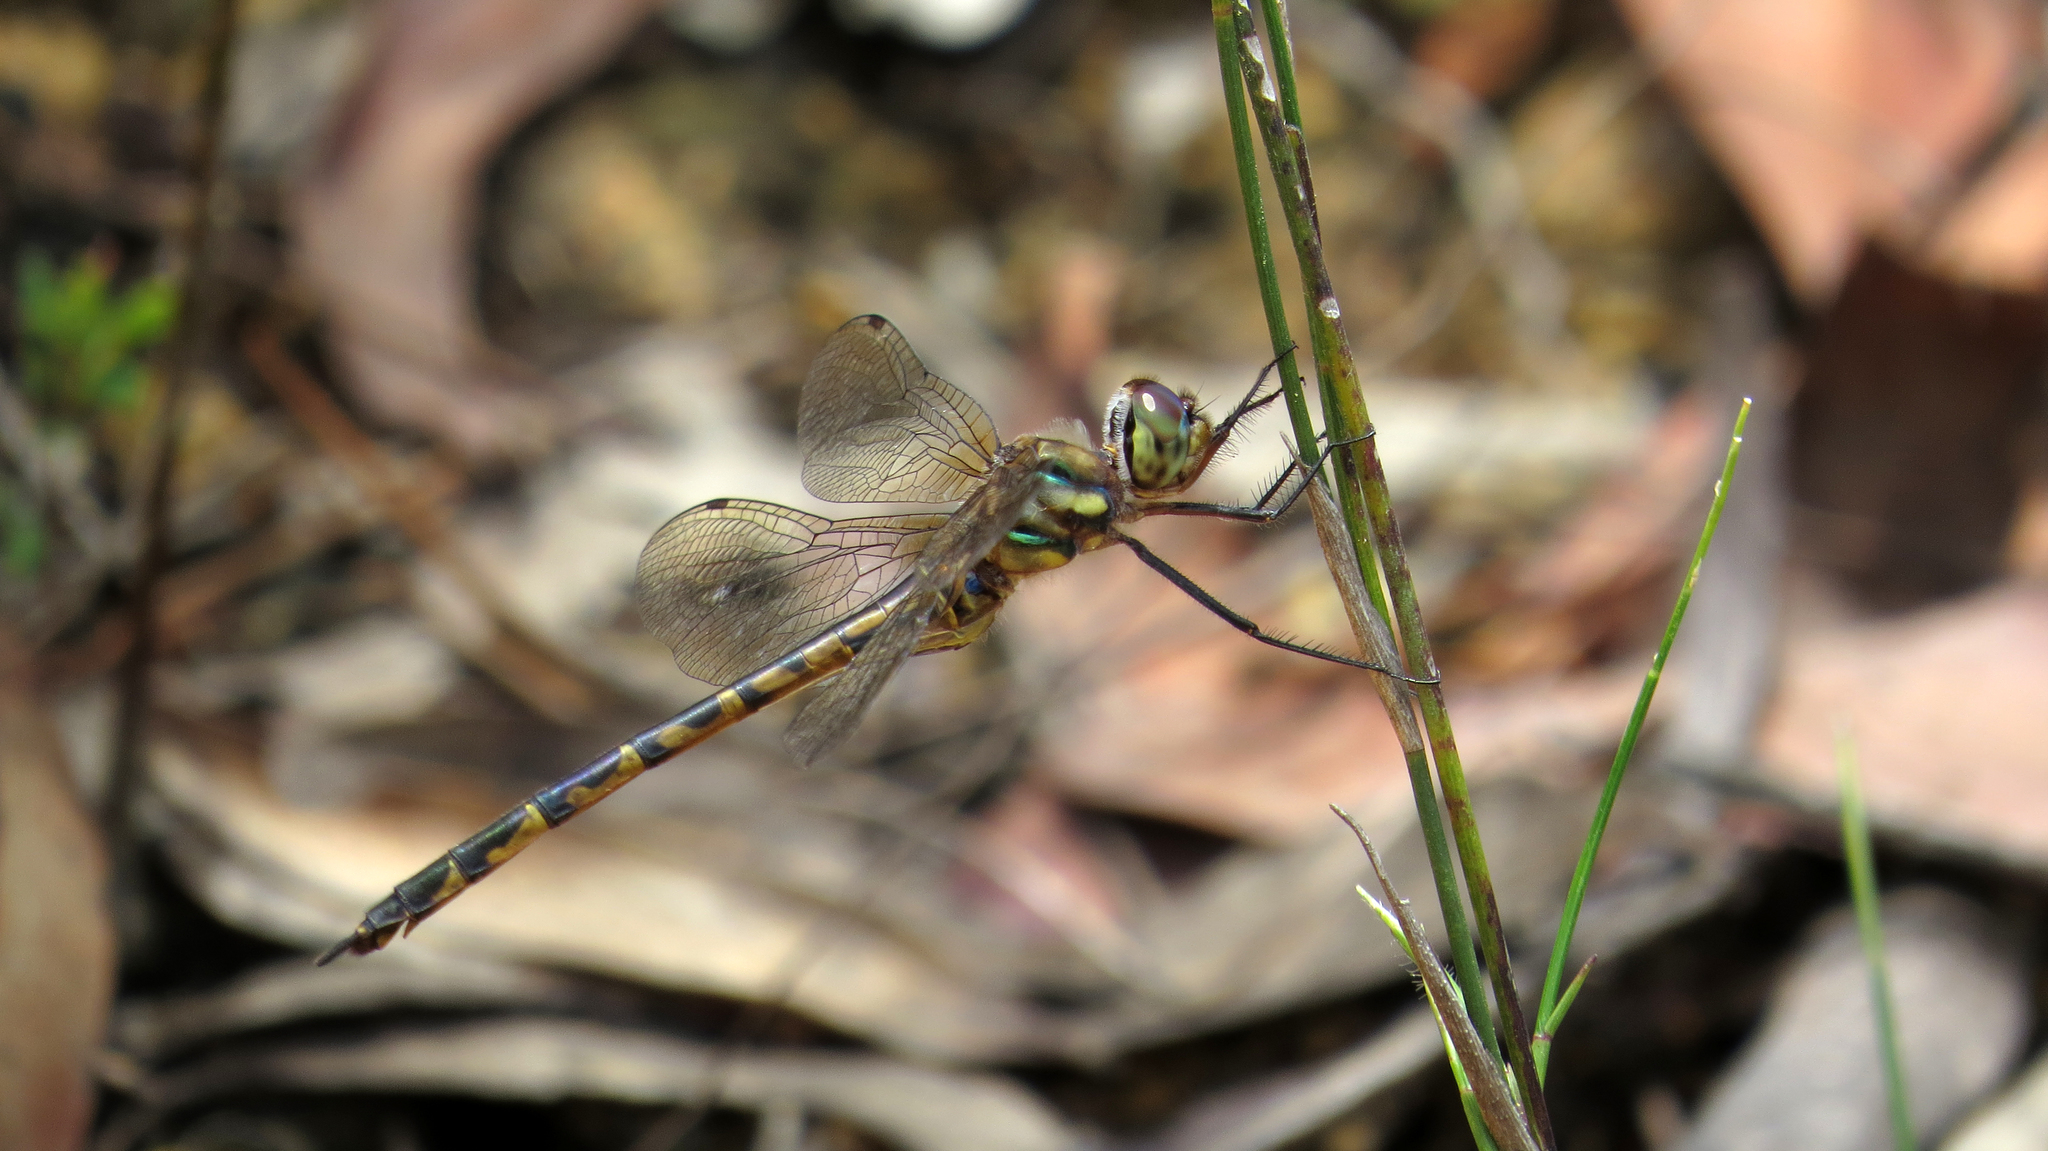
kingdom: Animalia
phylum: Arthropoda
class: Insecta
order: Odonata
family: Corduliidae
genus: Hemicordulia
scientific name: Hemicordulia australiae
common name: Sentry dragonfly
